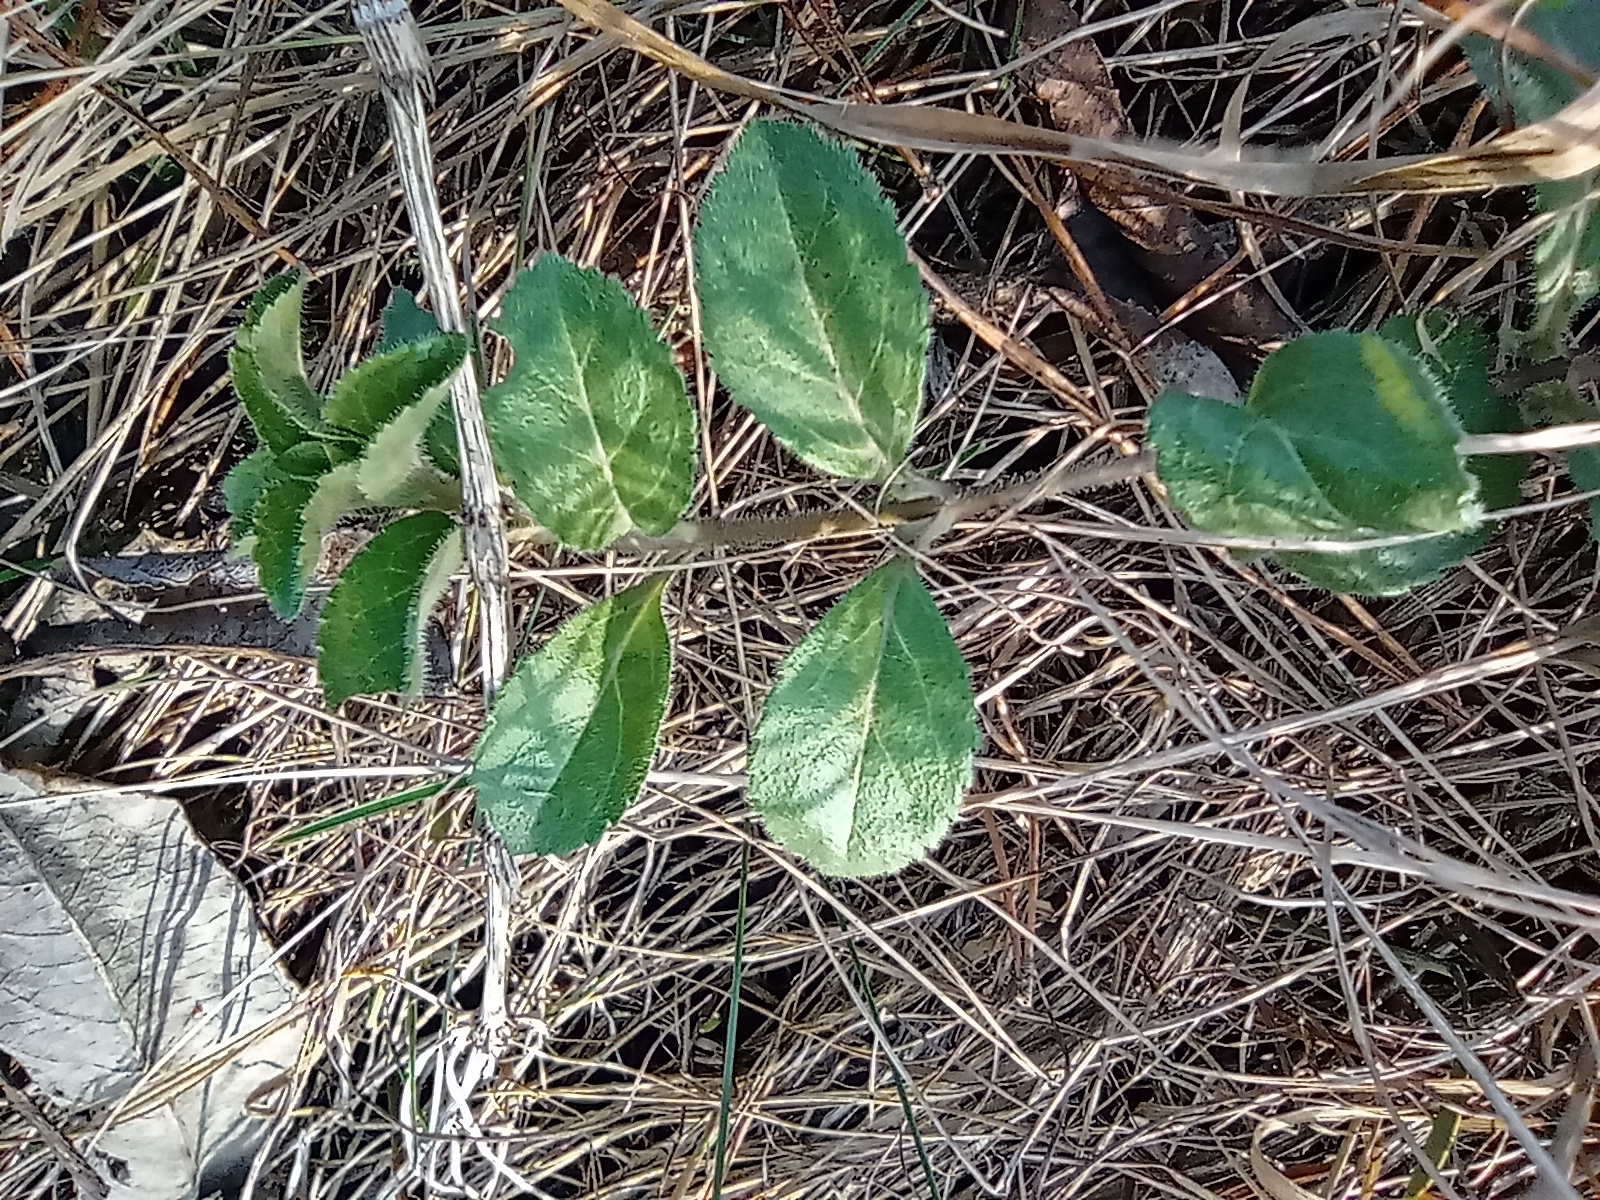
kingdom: Plantae
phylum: Tracheophyta
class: Magnoliopsida
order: Lamiales
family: Plantaginaceae
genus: Veronica
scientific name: Veronica officinalis
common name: Common speedwell
